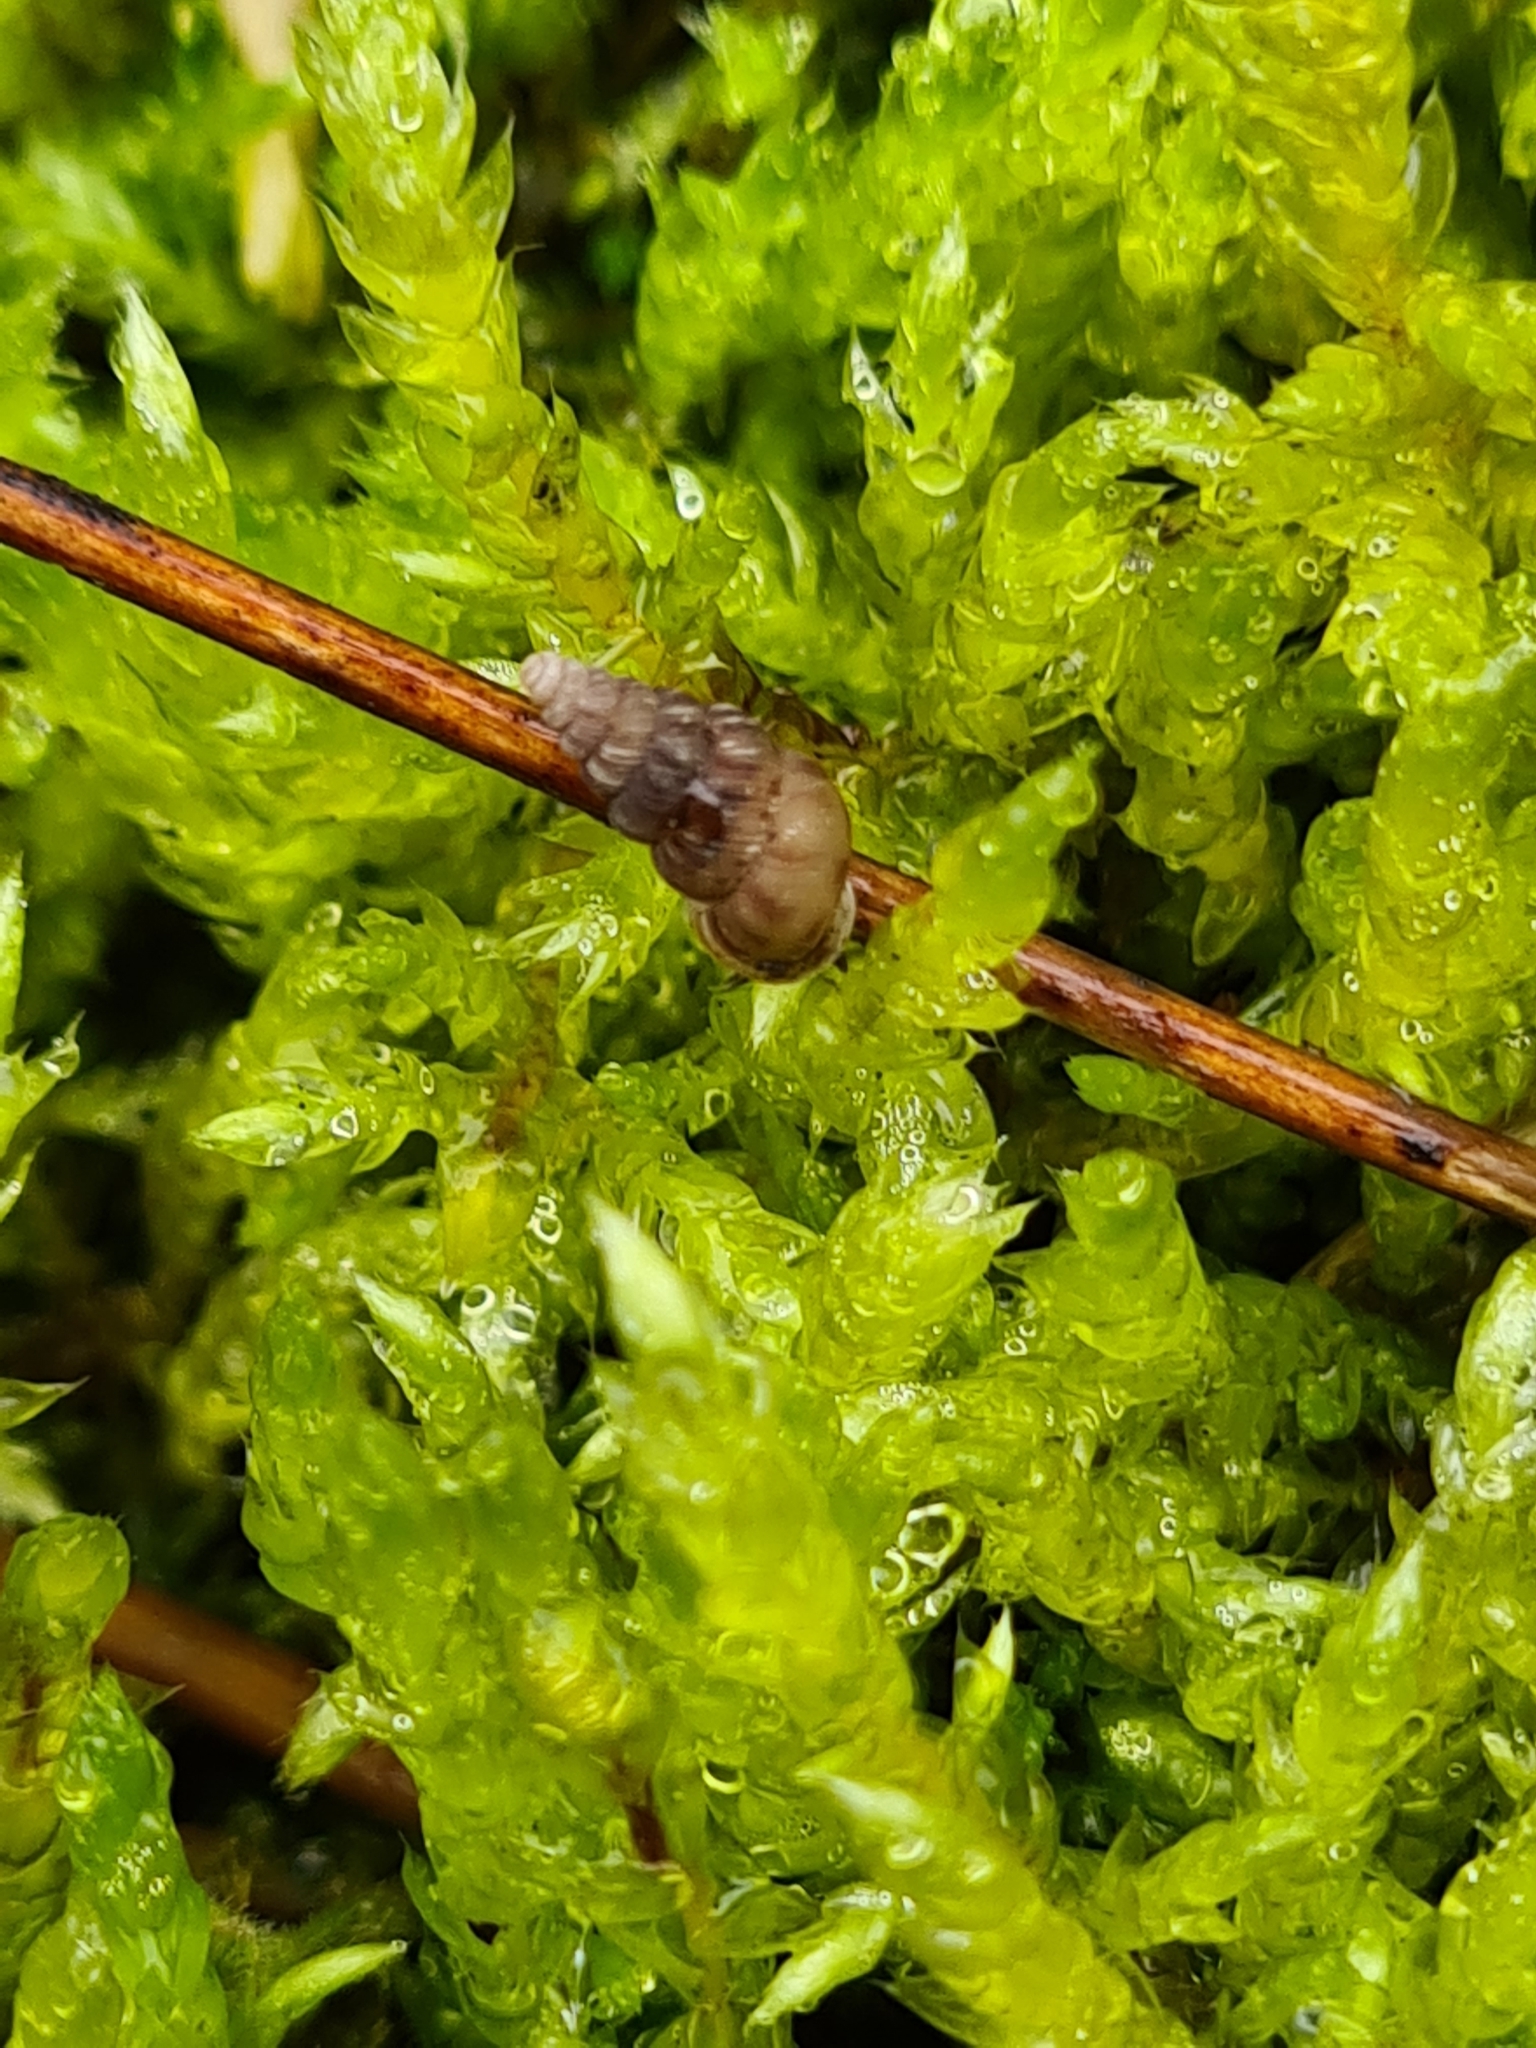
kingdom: Animalia
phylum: Mollusca
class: Gastropoda
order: Architaenioglossa
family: Cochlostomatidae
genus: Cochlostoma
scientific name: Cochlostoma septemspirale
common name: Seven-whorl snail
